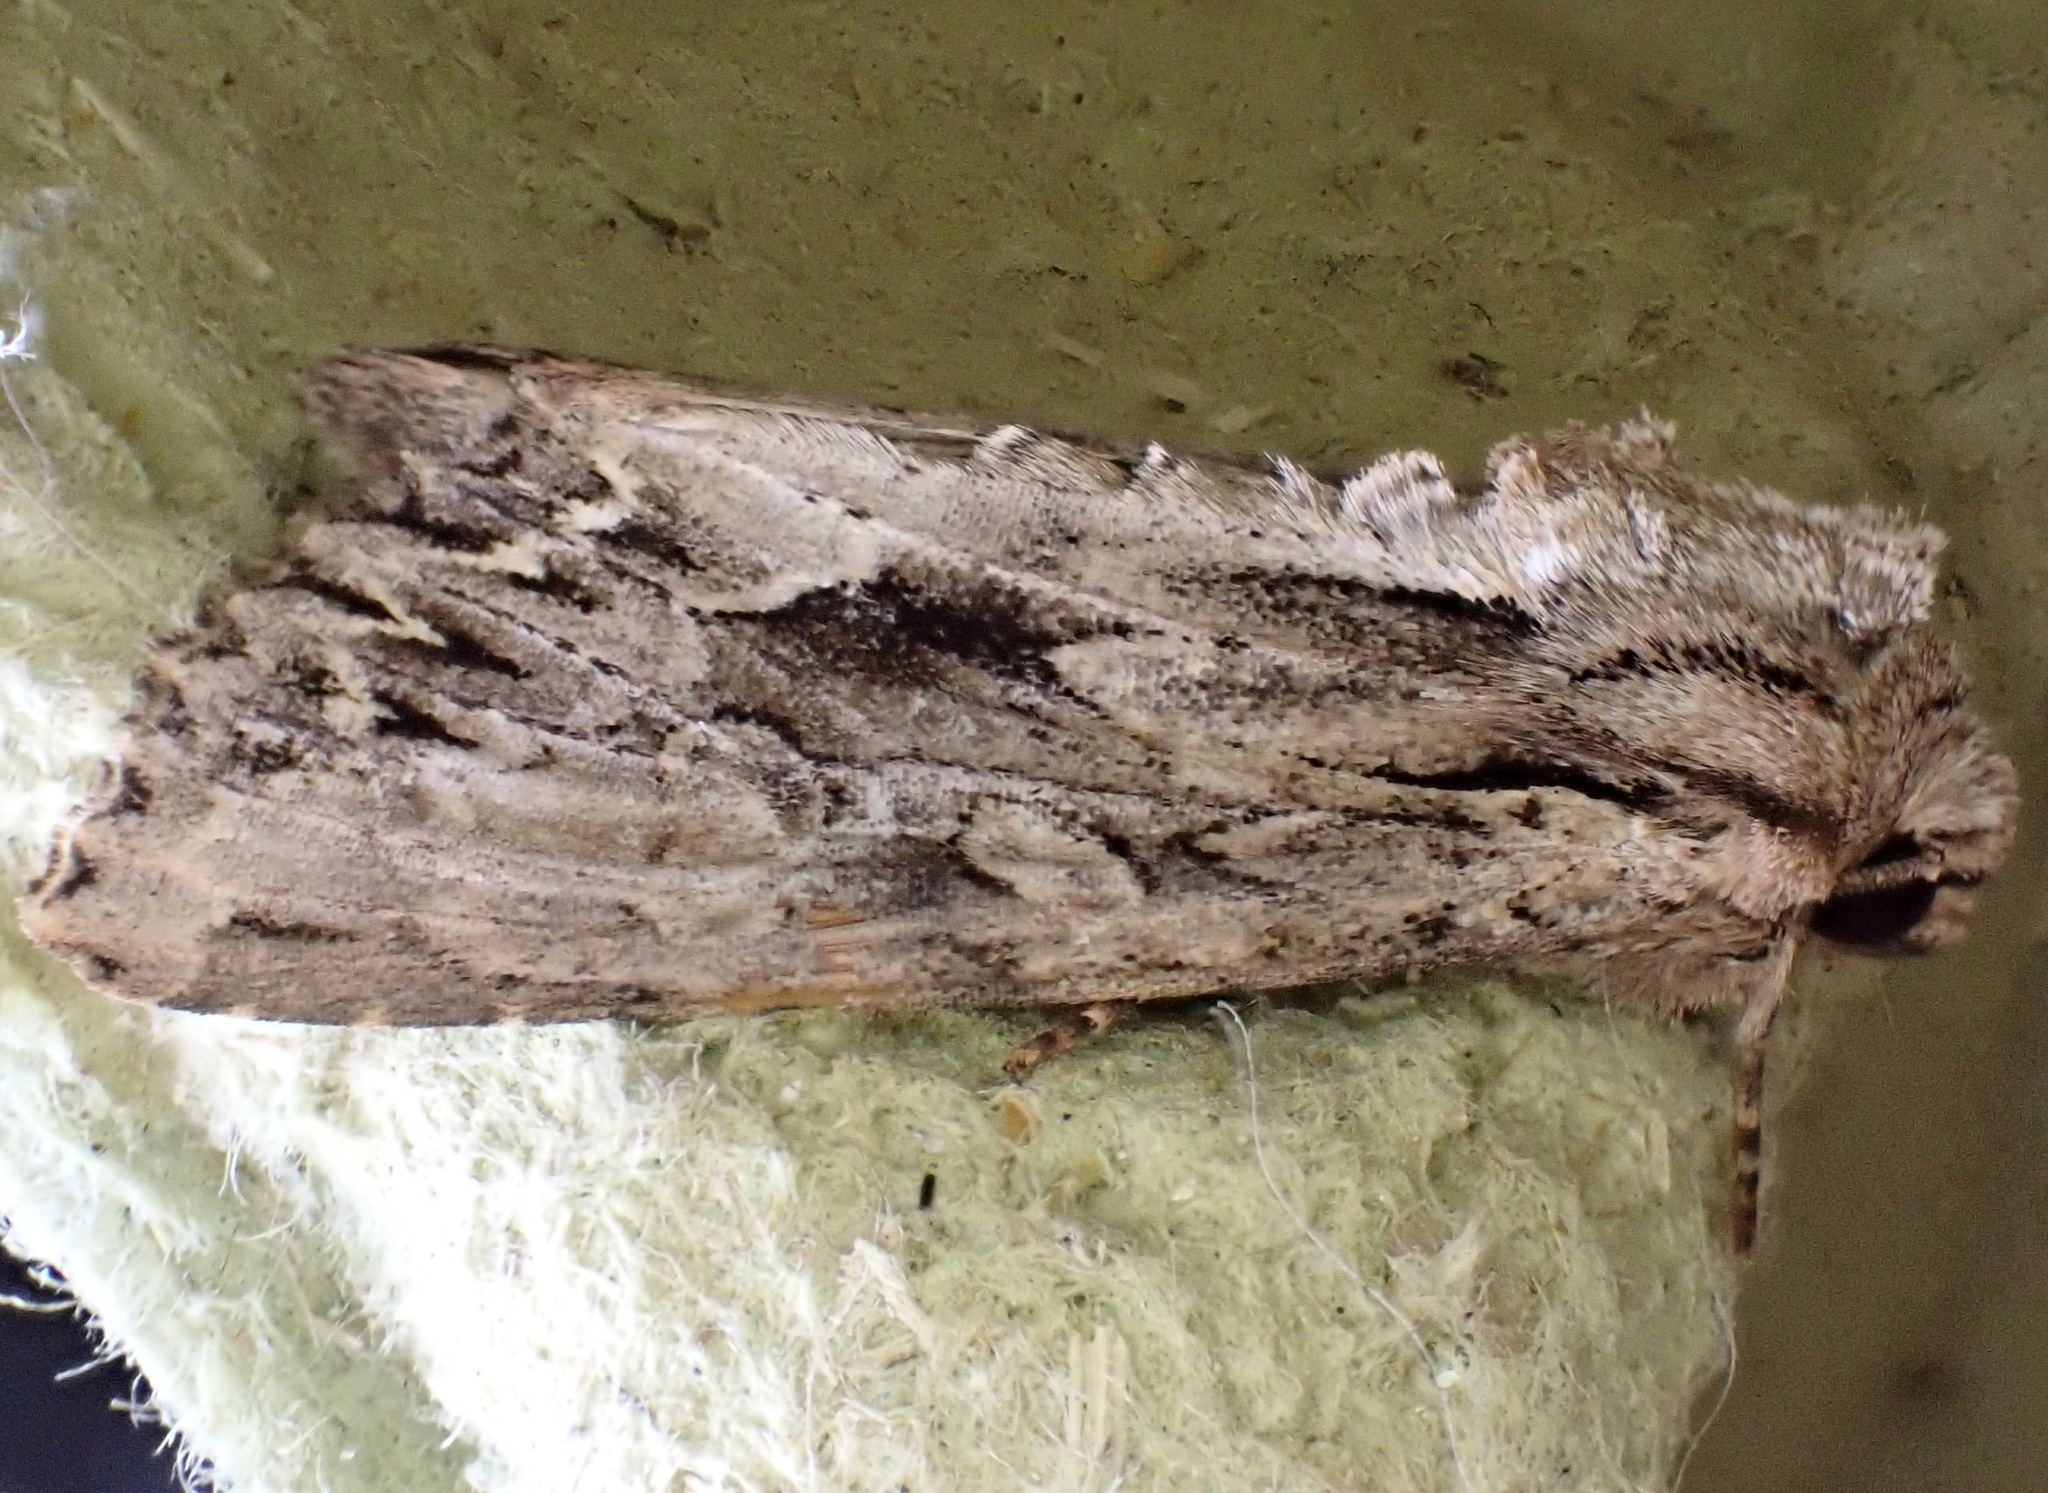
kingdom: Animalia
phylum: Arthropoda
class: Insecta
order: Lepidoptera
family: Noctuidae
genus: Apamea
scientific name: Apamea monoglypha
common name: Dark arches
